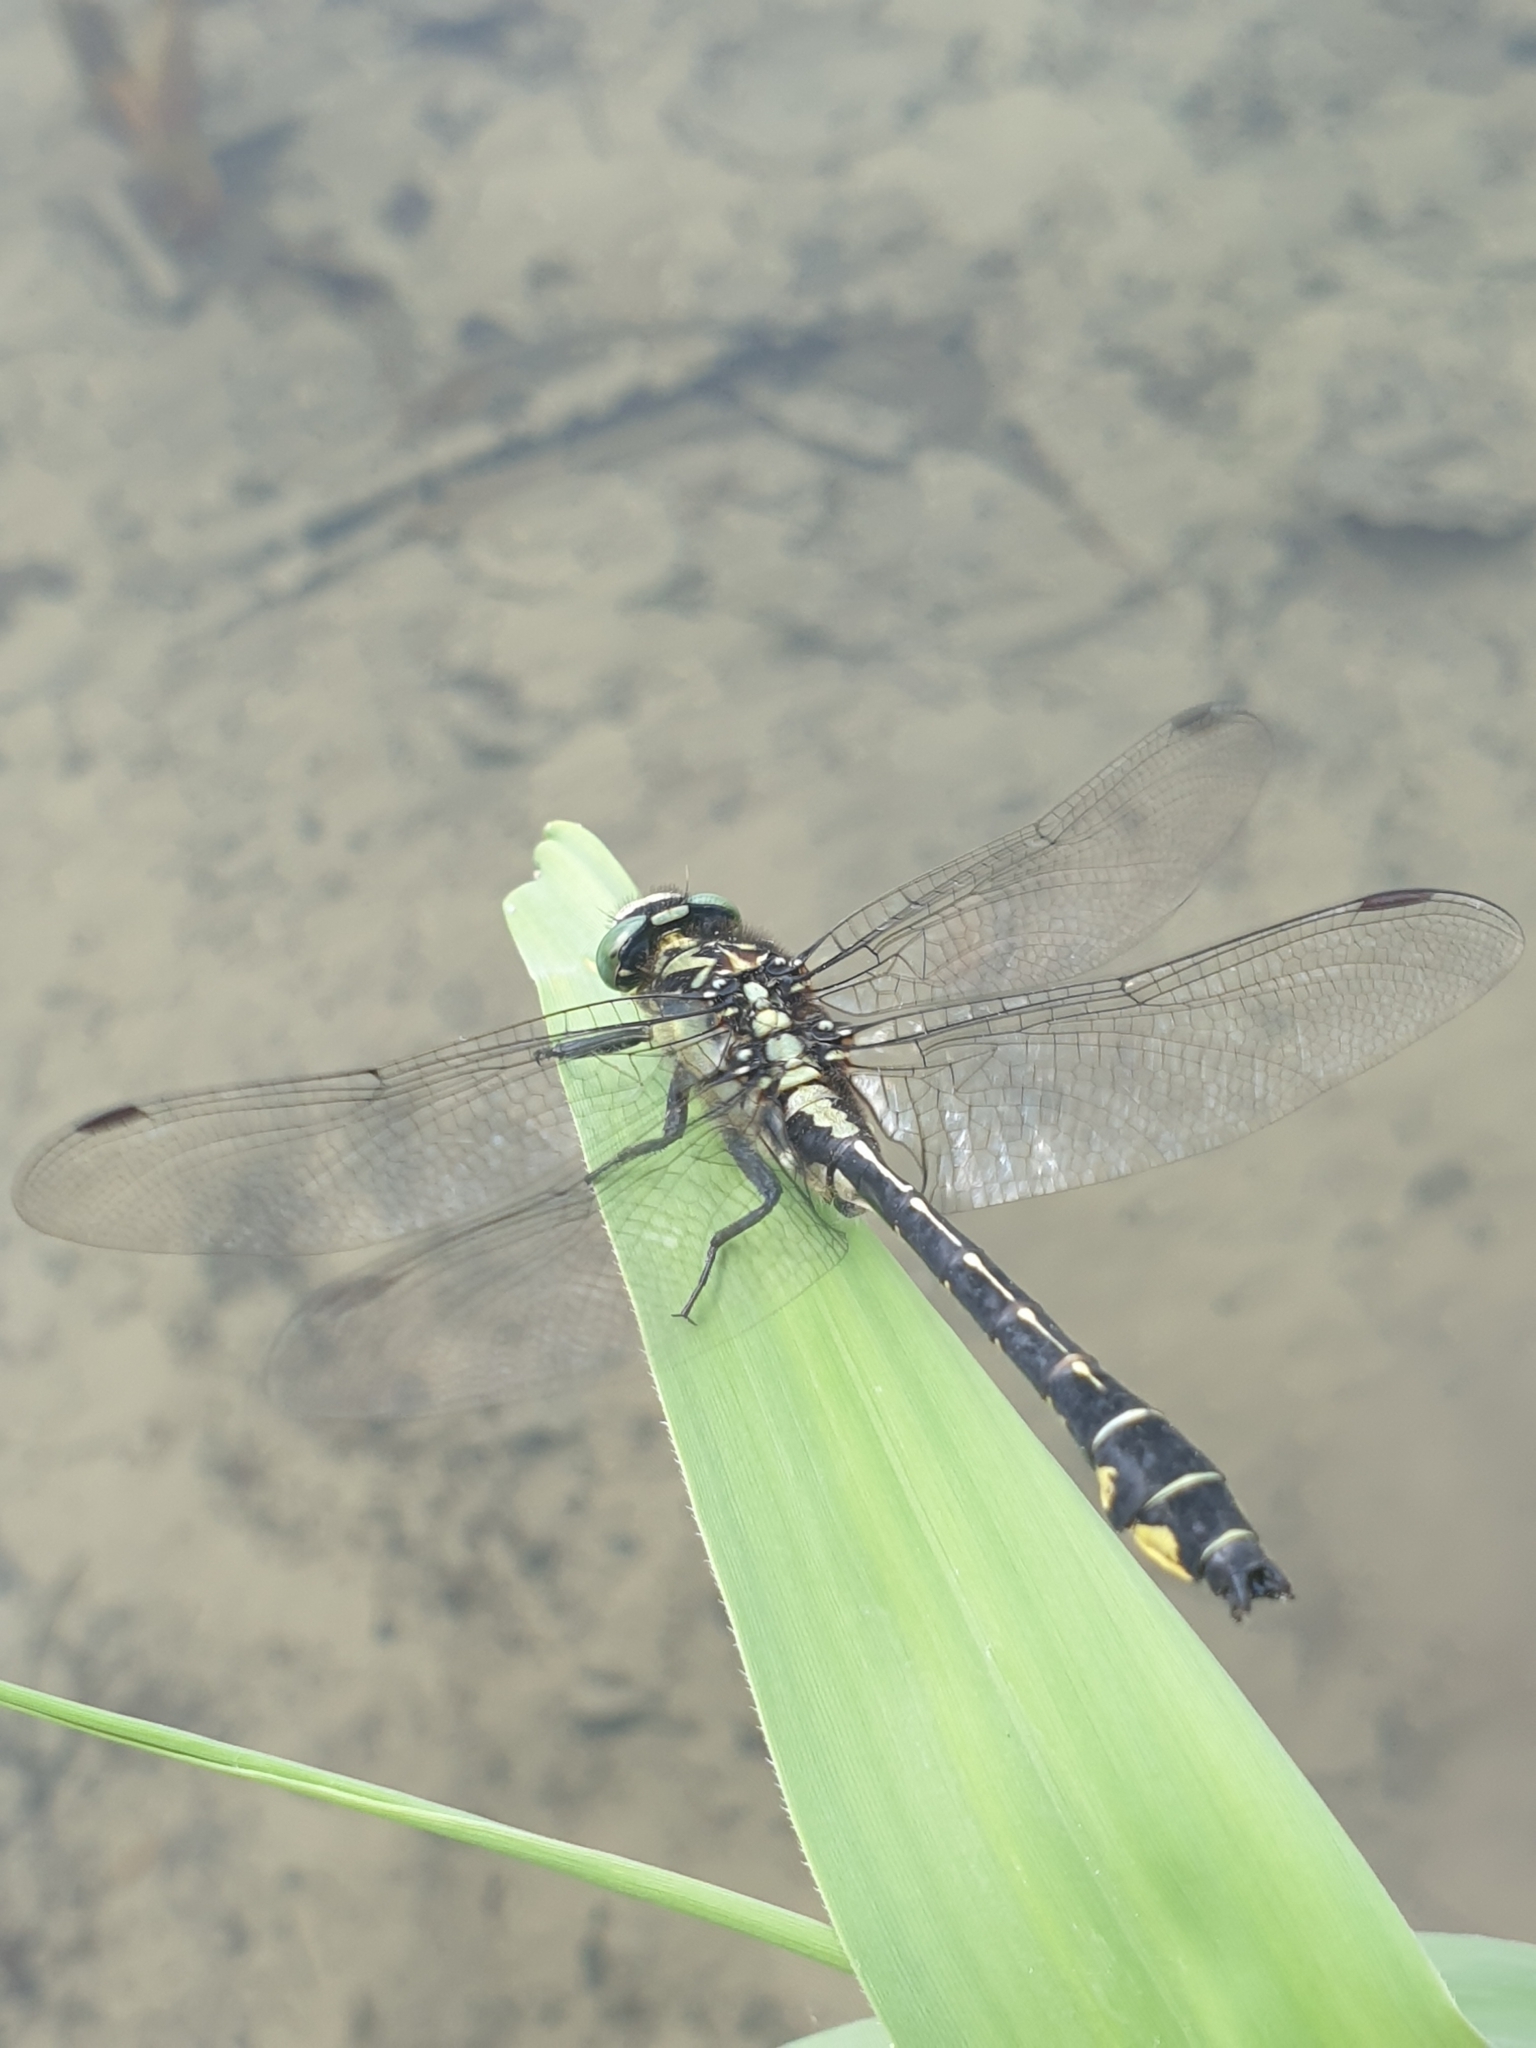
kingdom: Animalia
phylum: Arthropoda
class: Insecta
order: Odonata
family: Gomphidae
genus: Gomphus
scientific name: Gomphus vulgatissimus
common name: Club-tailed dragonfly
